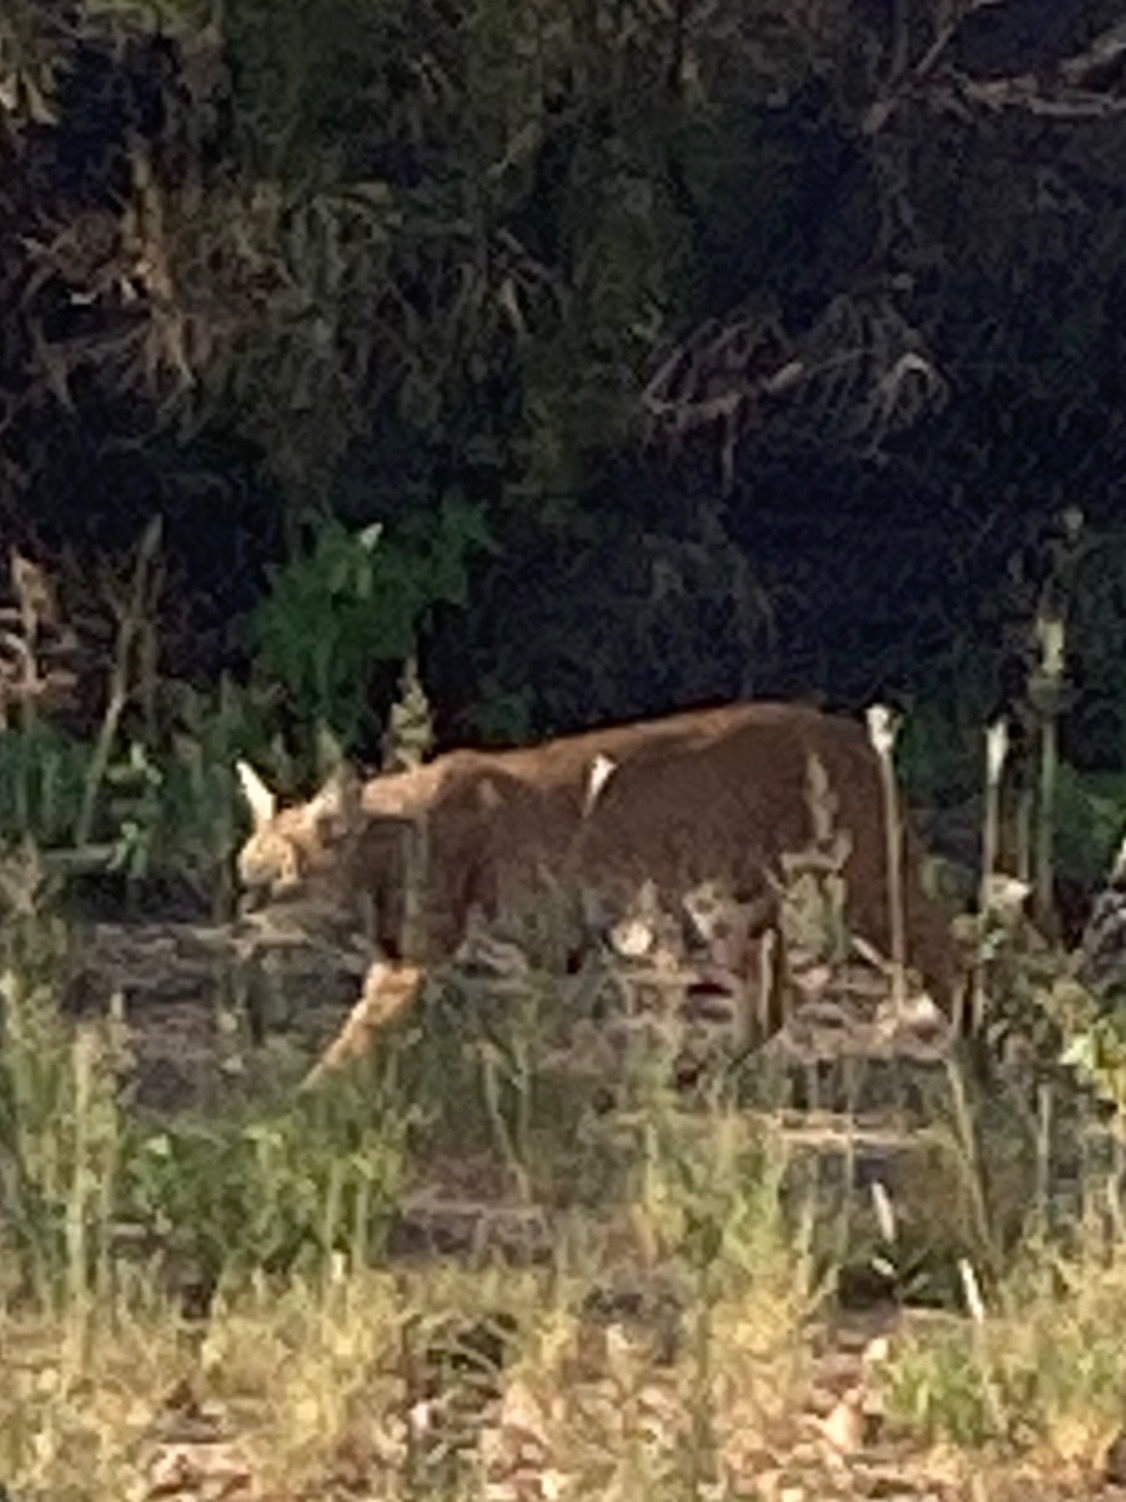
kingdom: Animalia
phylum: Chordata
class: Mammalia
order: Carnivora
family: Felidae
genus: Lynx
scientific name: Lynx rufus
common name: Bobcat
